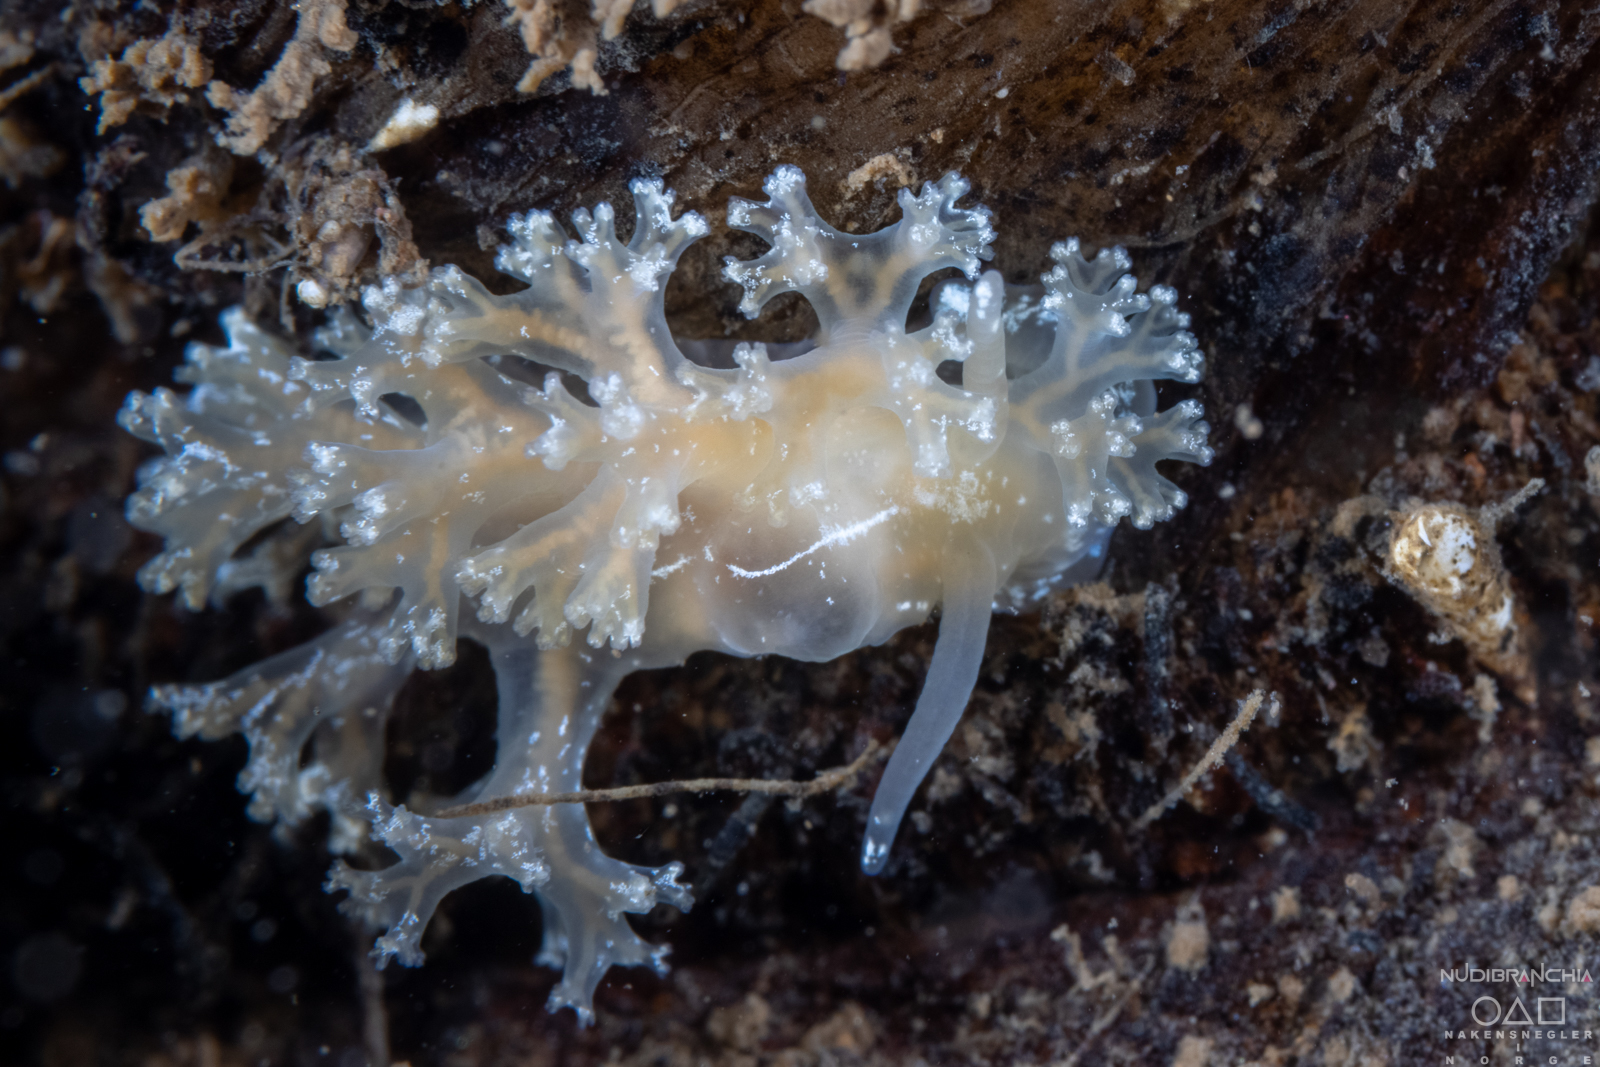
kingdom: Animalia
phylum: Mollusca
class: Gastropoda
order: Nudibranchia
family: Heroidae
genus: Hero
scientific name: Hero formosa
